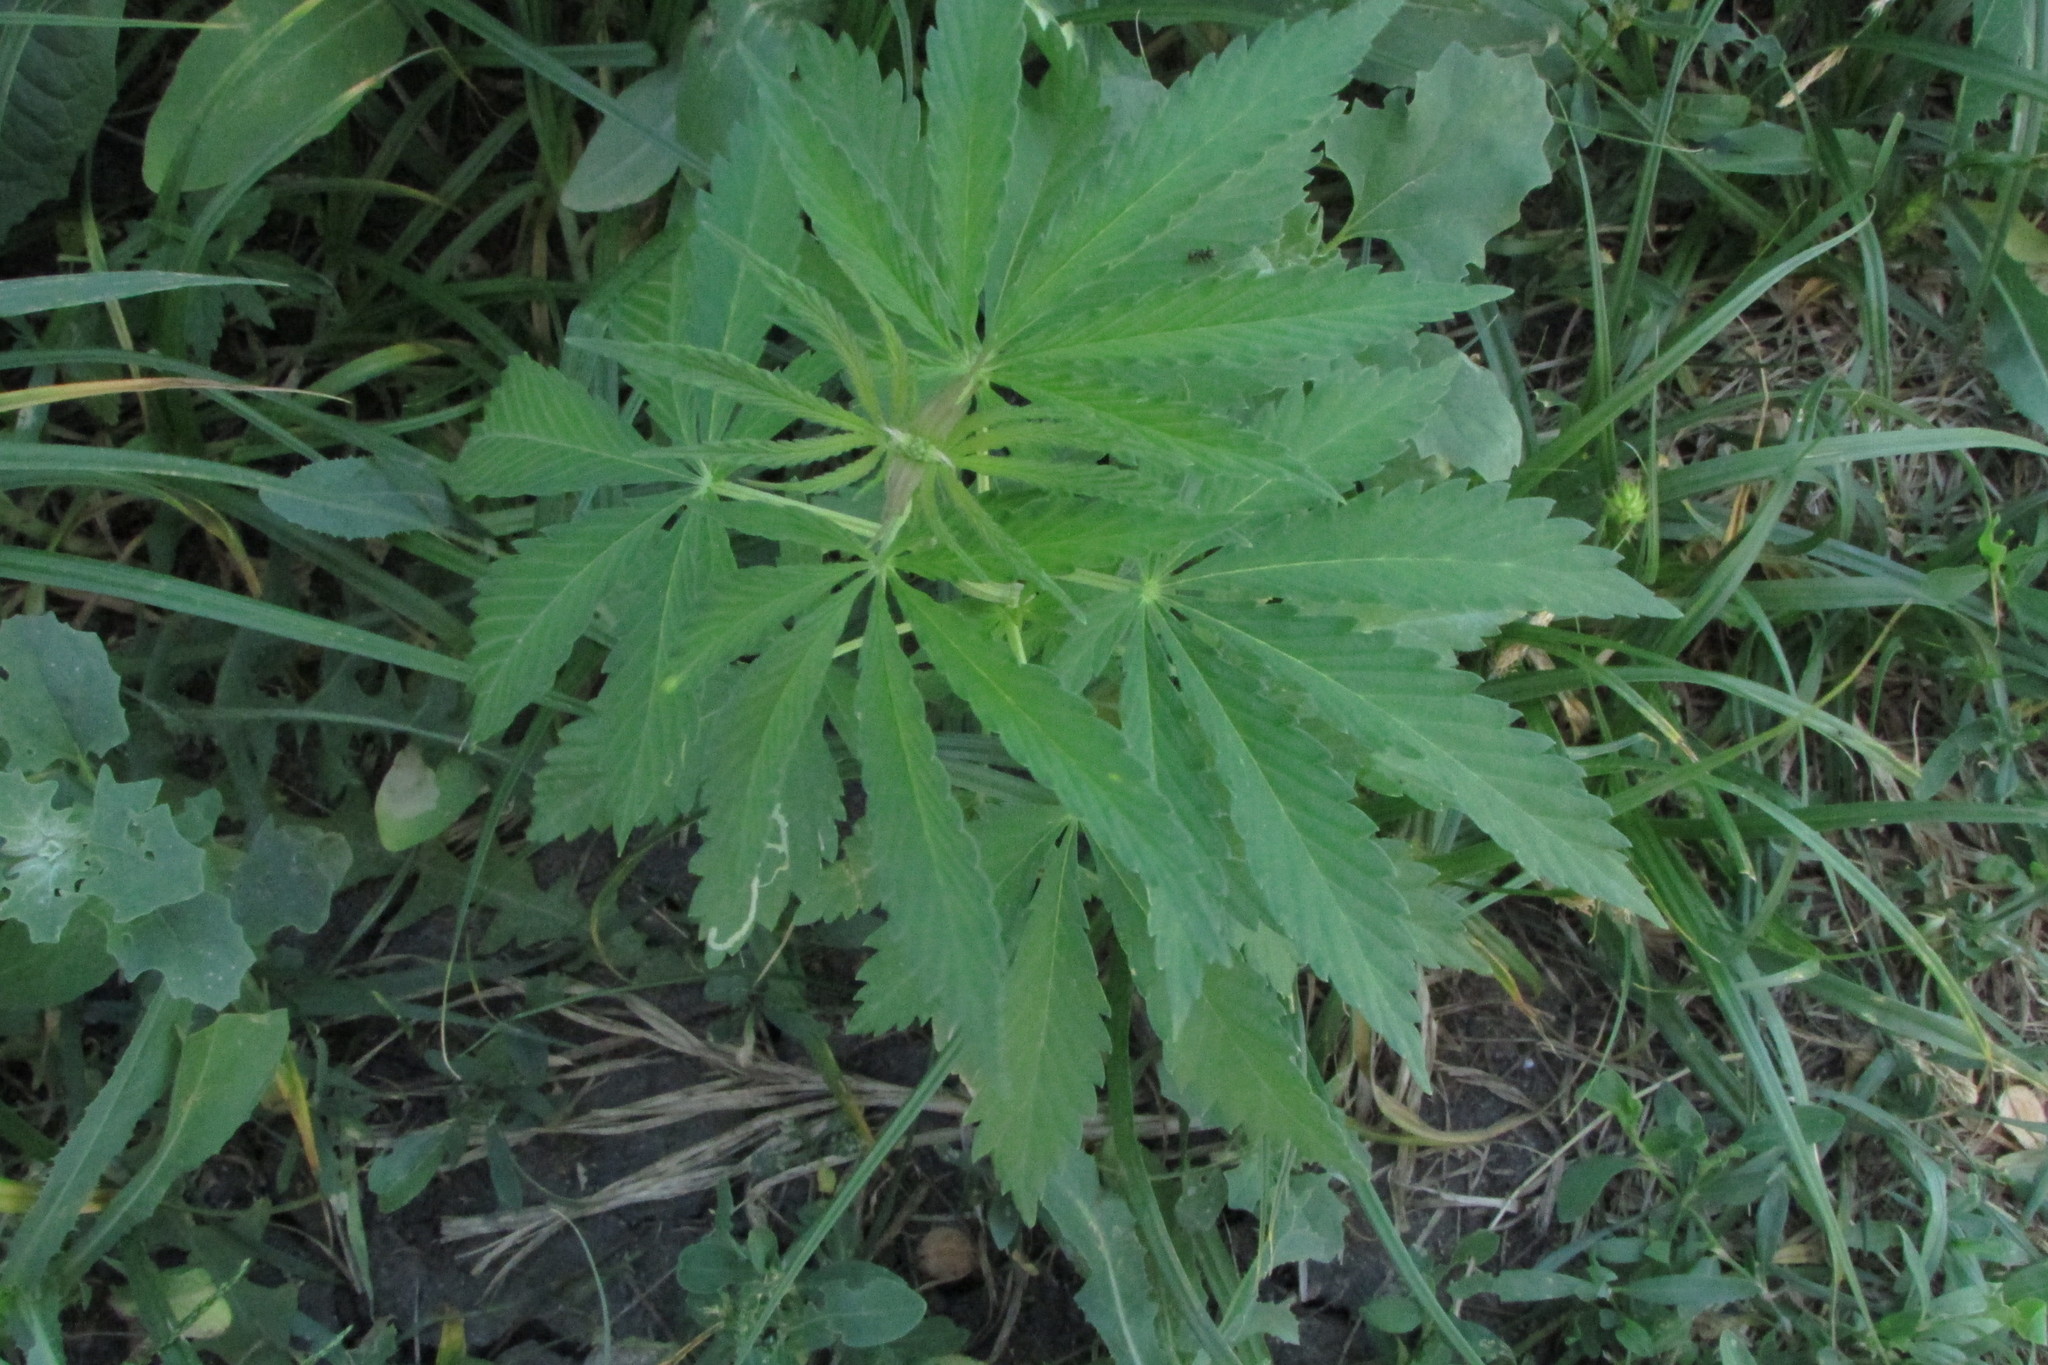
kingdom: Plantae
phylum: Tracheophyta
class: Magnoliopsida
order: Rosales
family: Cannabaceae
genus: Cannabis
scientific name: Cannabis sativa
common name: Hemp
